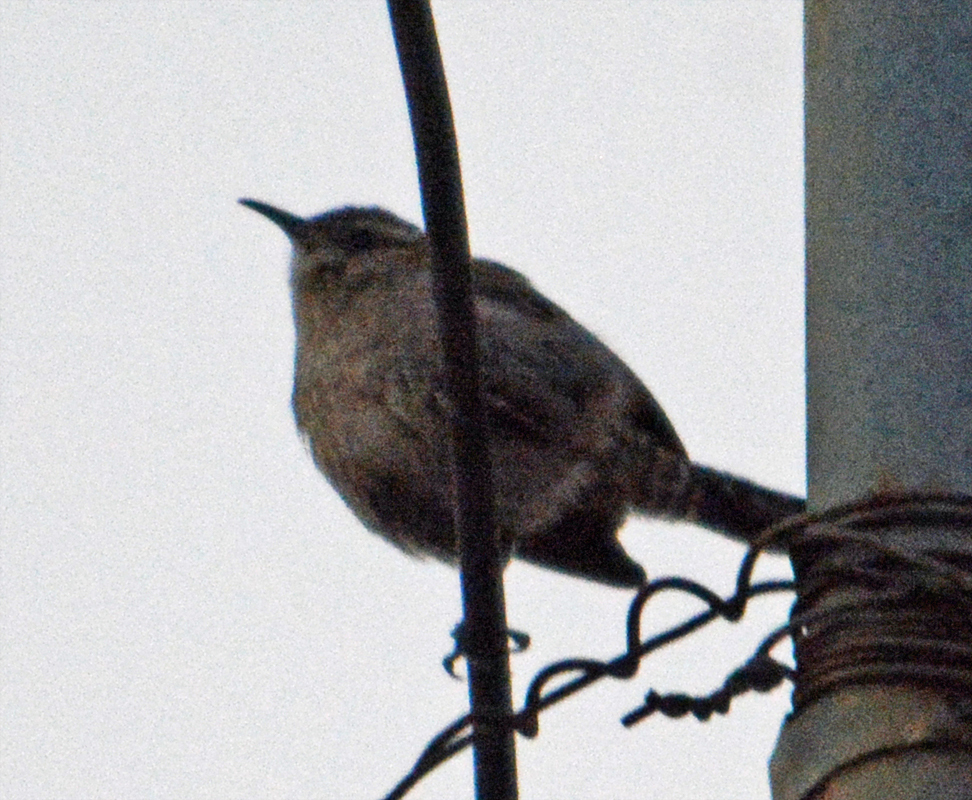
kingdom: Animalia
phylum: Chordata
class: Aves
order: Passeriformes
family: Troglodytidae
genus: Thryomanes
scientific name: Thryomanes bewickii
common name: Bewick's wren
